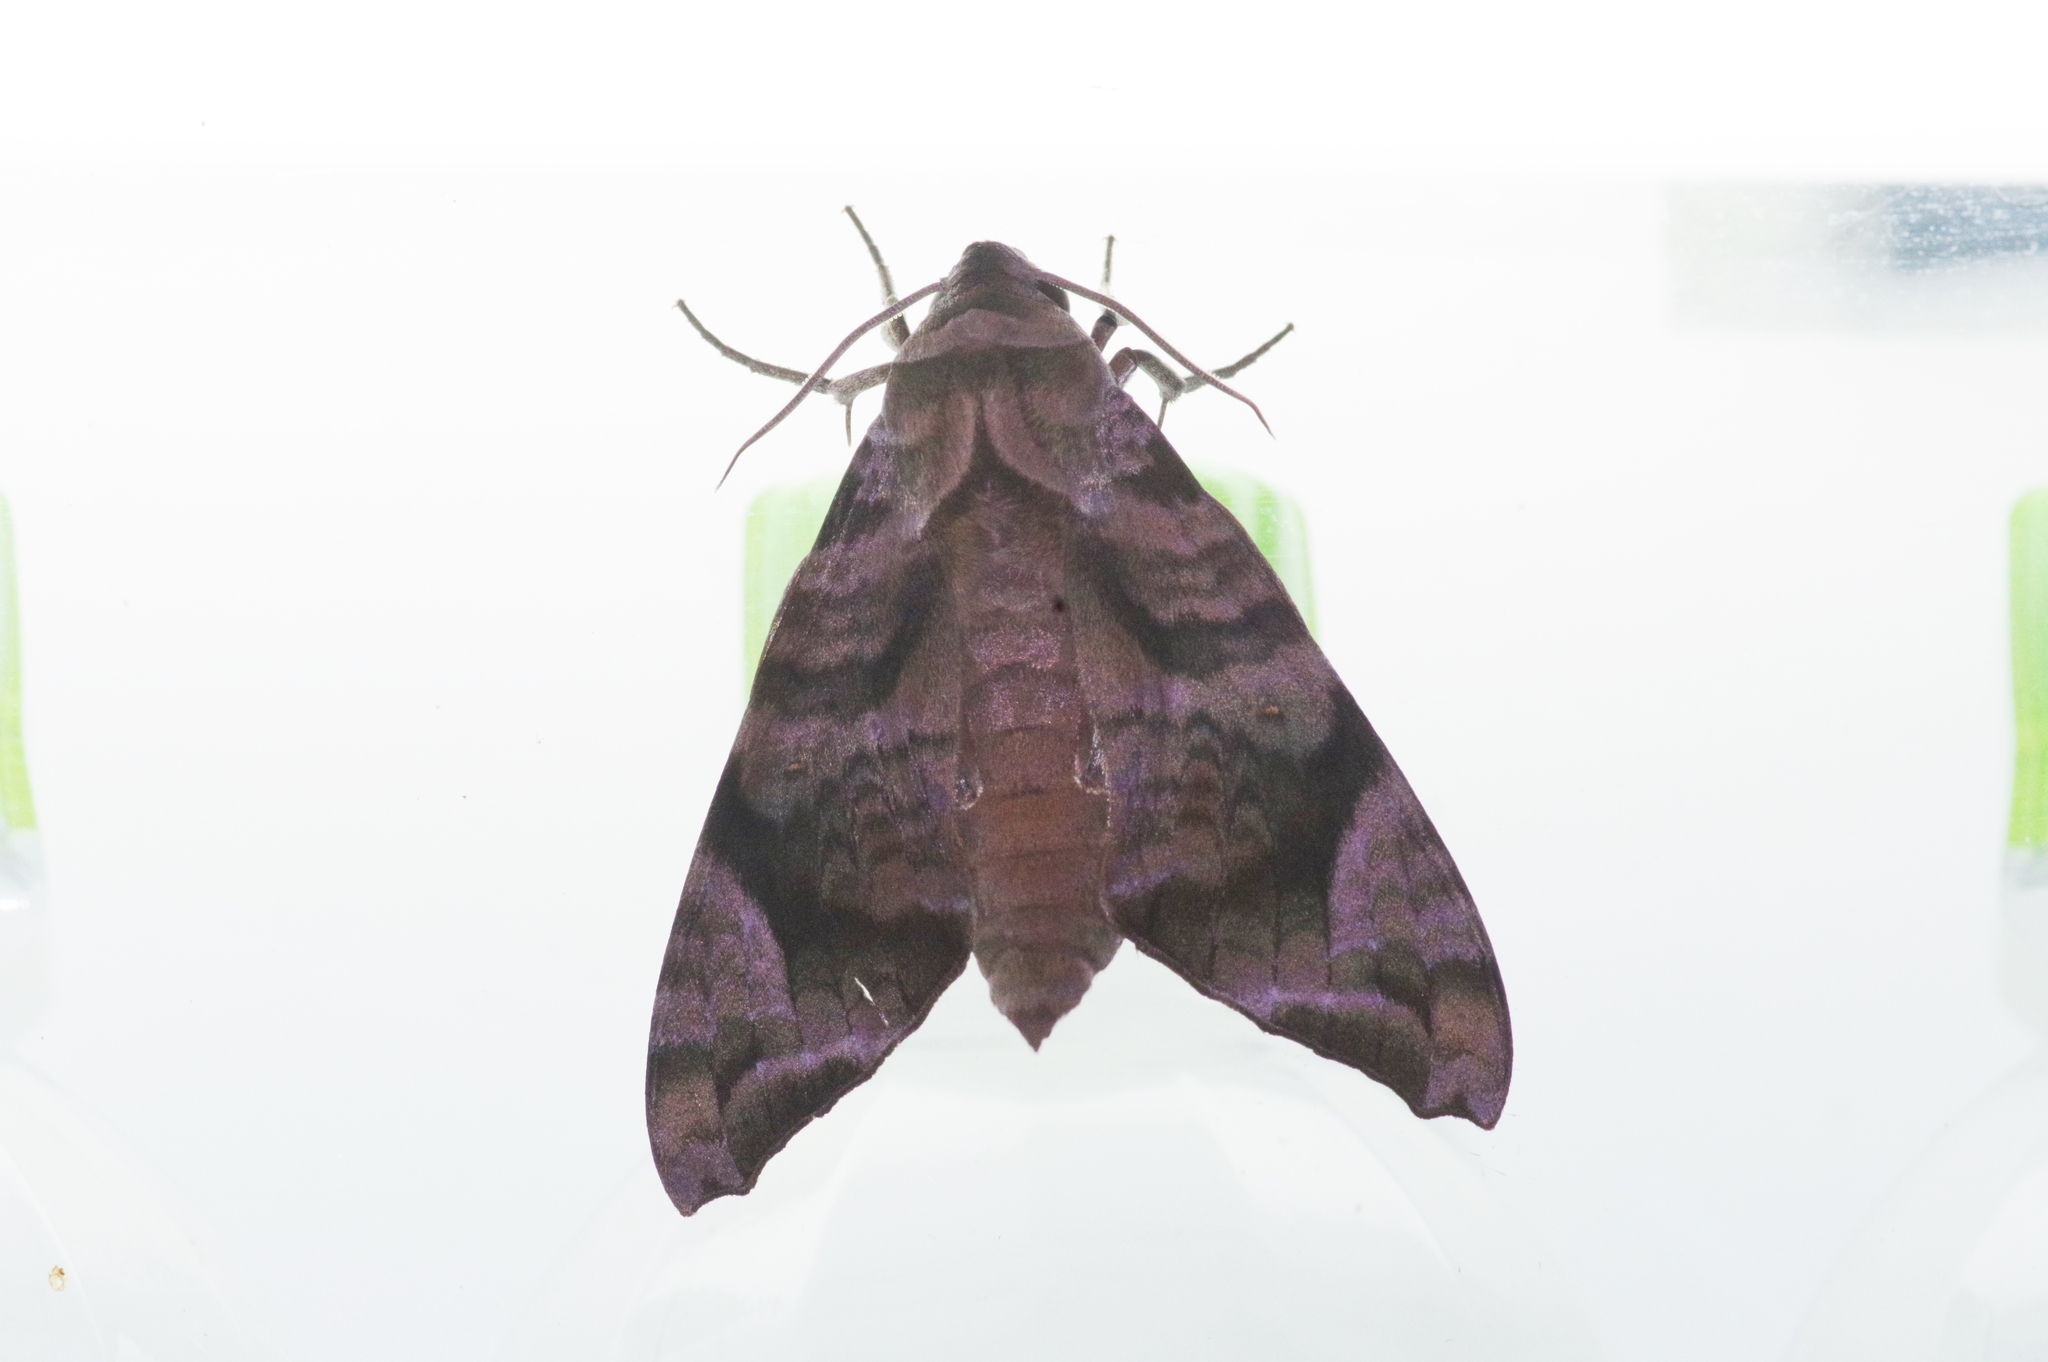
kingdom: Animalia
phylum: Arthropoda
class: Insecta
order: Lepidoptera
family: Sphingidae
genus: Acosmeryx
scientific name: Acosmeryx castanea
